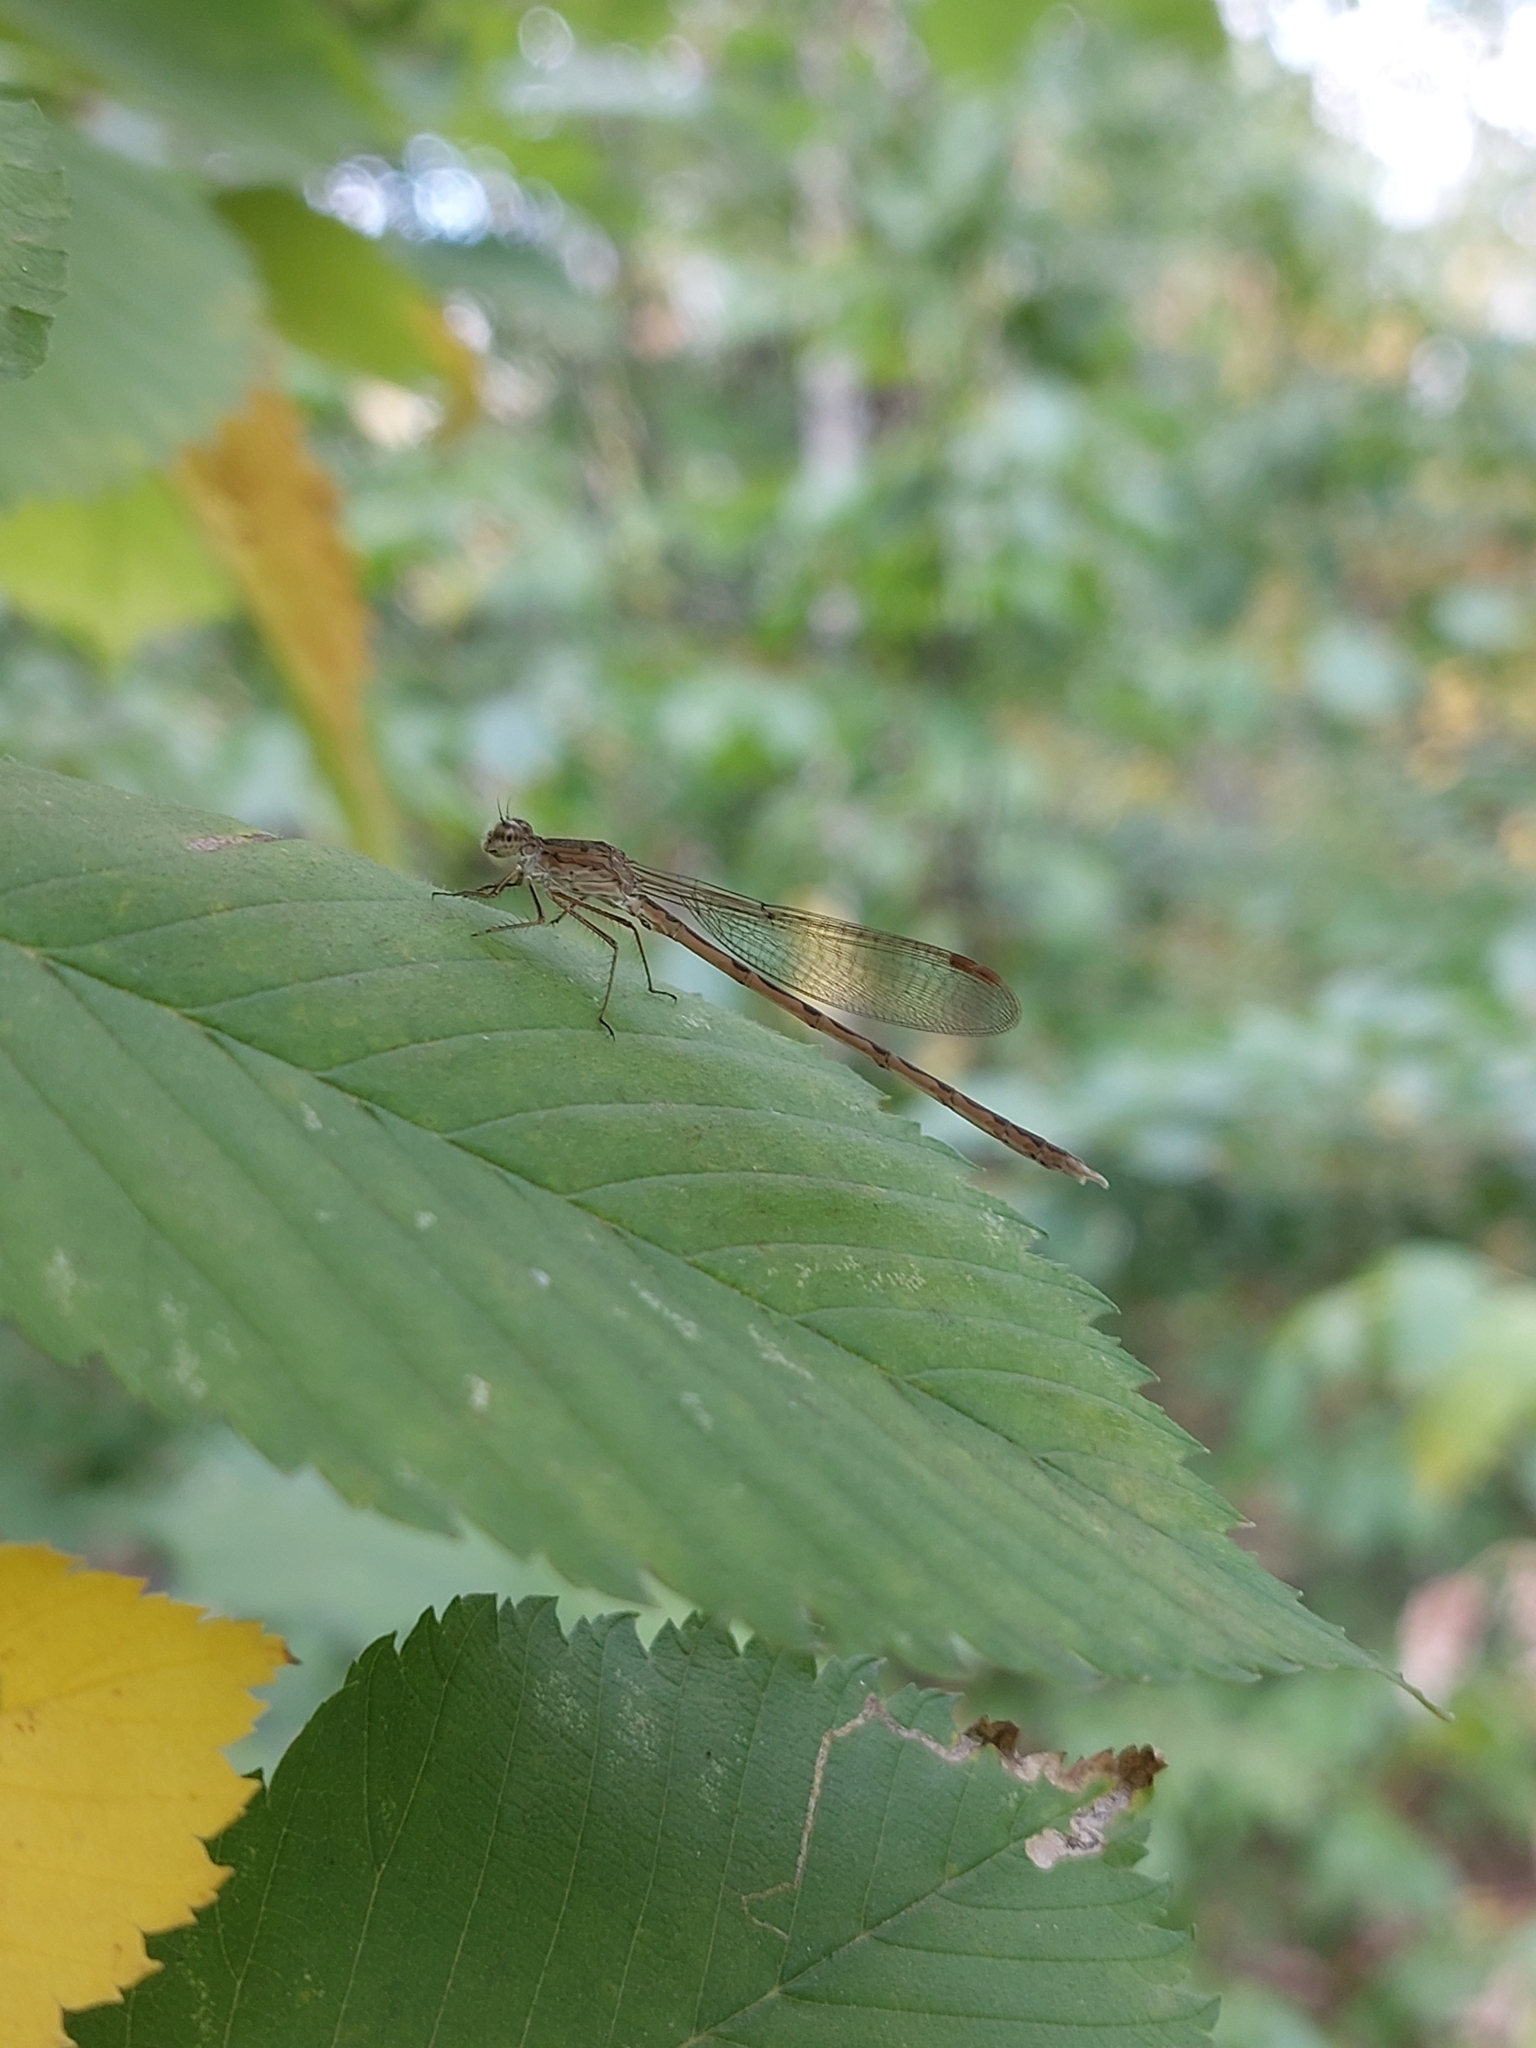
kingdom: Animalia
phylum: Arthropoda
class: Insecta
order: Odonata
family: Lestidae
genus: Sympecma
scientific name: Sympecma paedisca
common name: Siberian winter damsel
